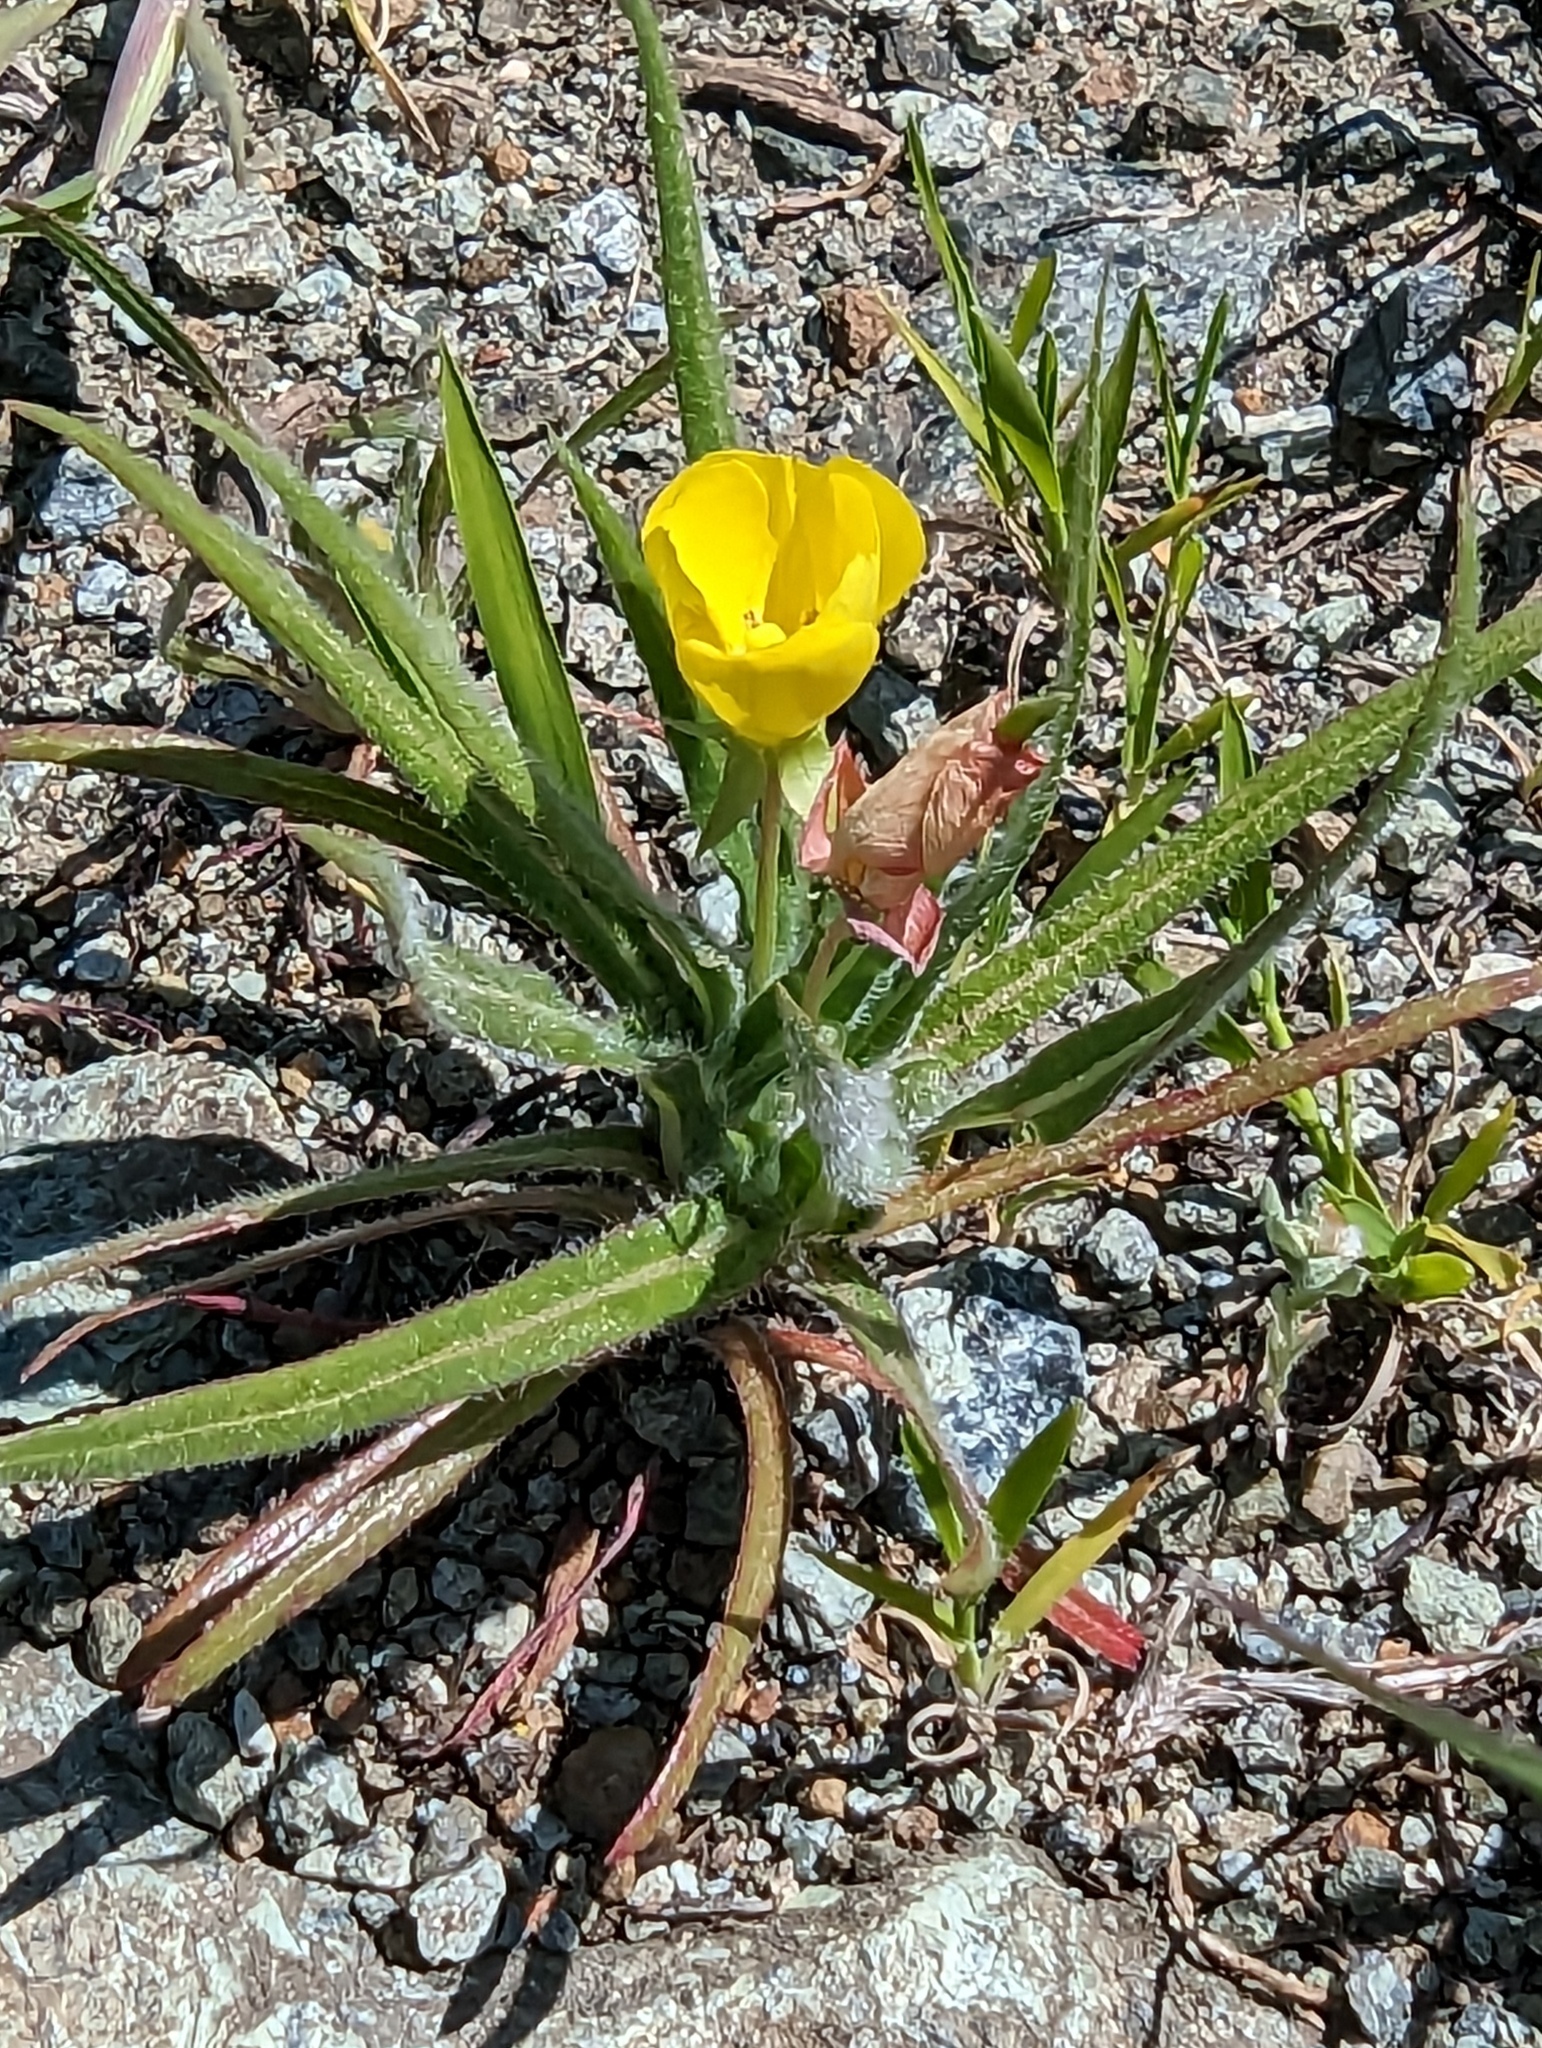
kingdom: Plantae
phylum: Tracheophyta
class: Magnoliopsida
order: Myrtales
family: Onagraceae
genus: Tetrapteron
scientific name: Tetrapteron graciliflorum
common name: Hill suncup
